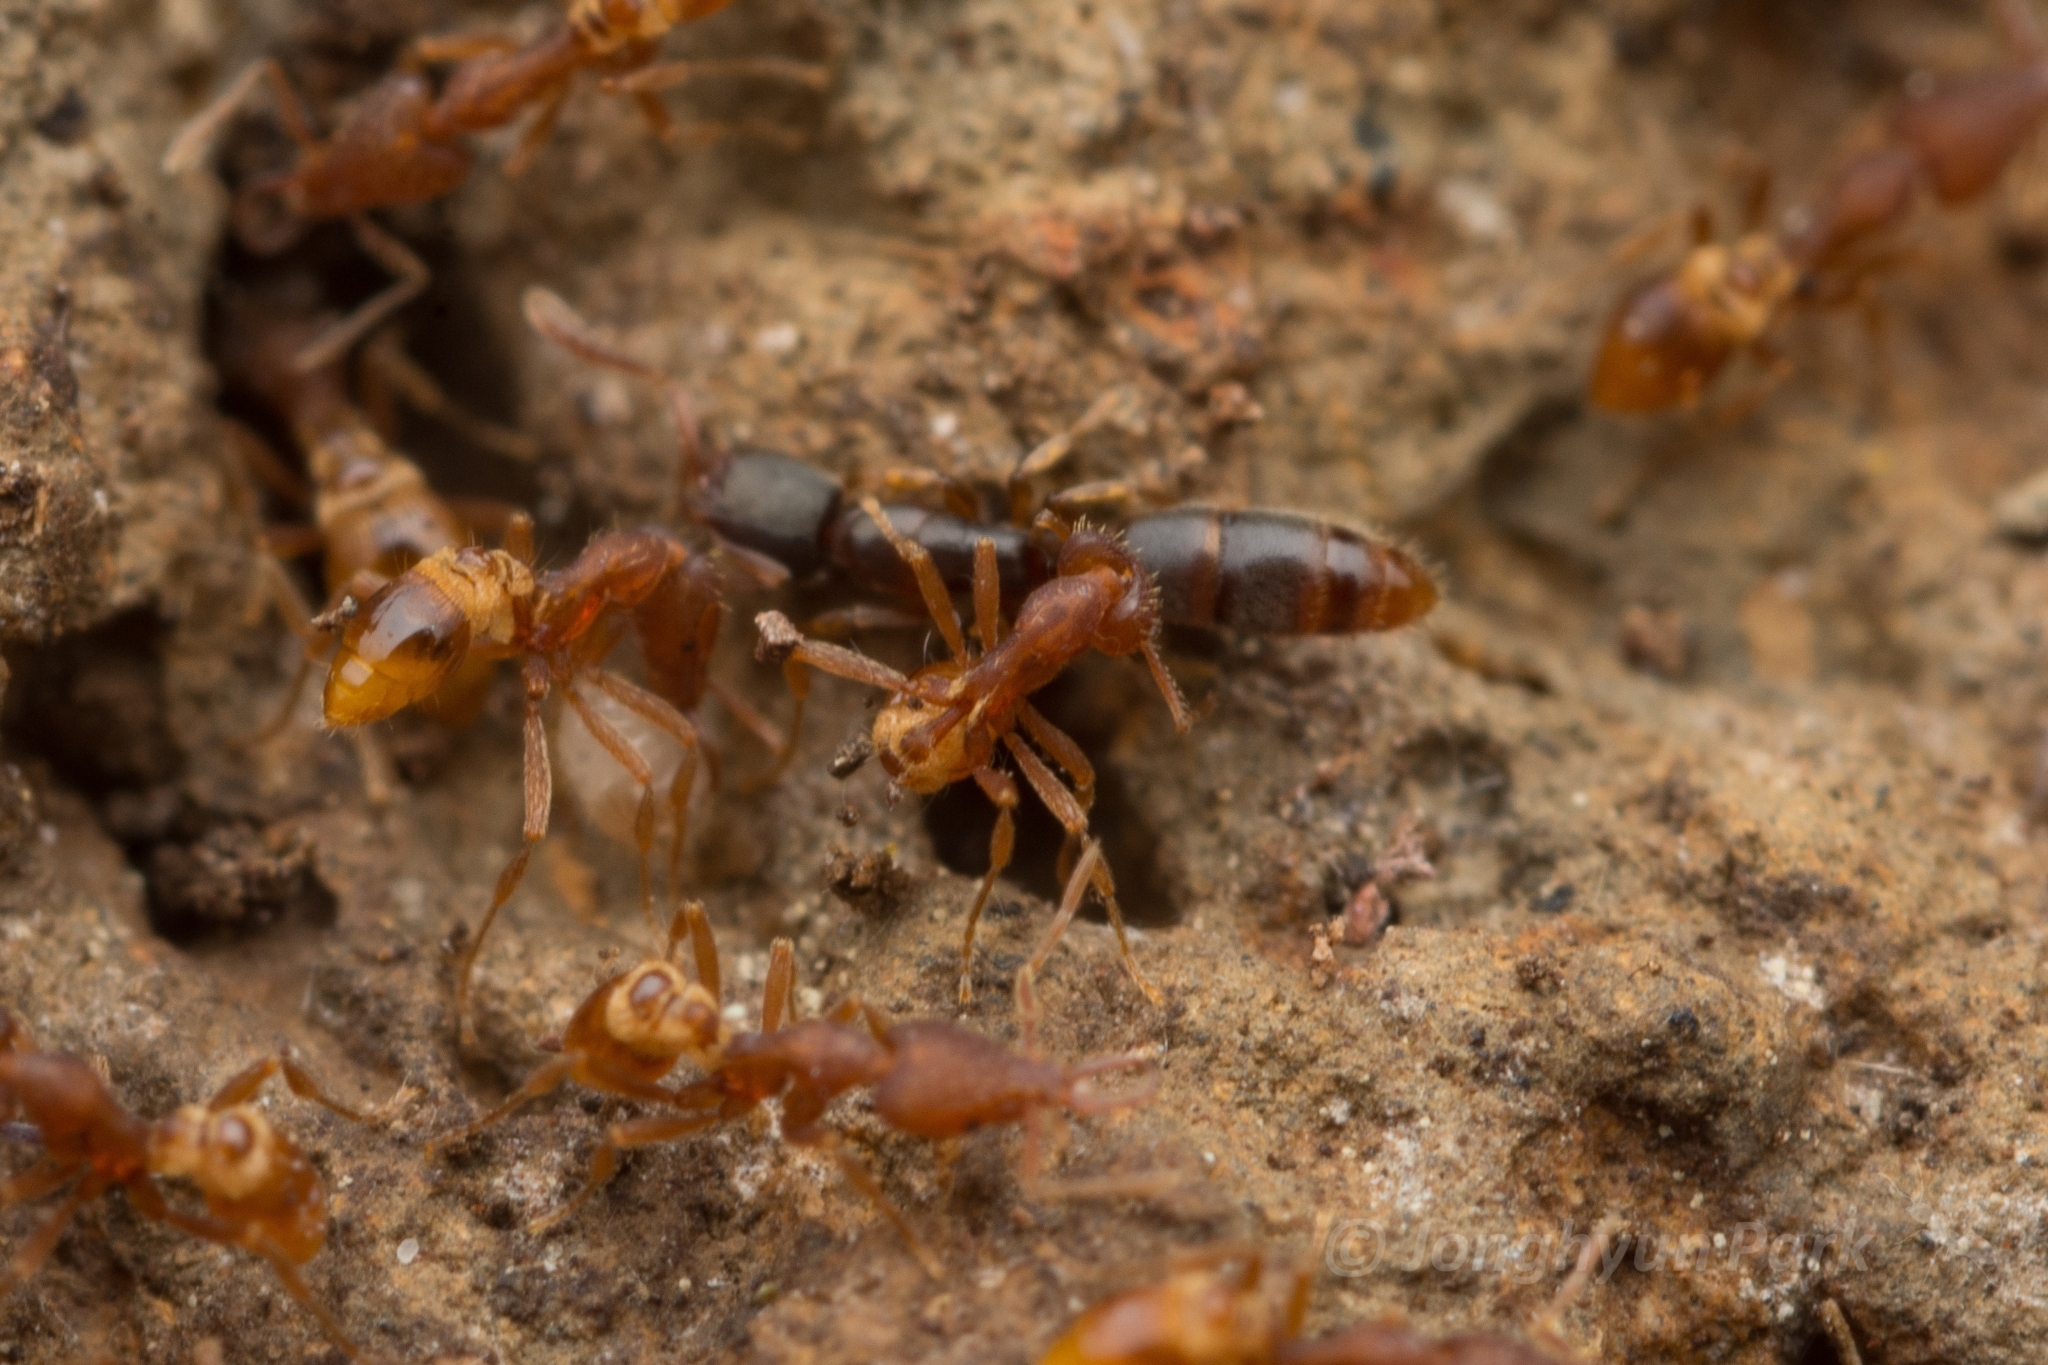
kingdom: Animalia
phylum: Arthropoda
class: Insecta
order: Hymenoptera
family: Formicidae
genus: Strumigenys
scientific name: Strumigenys lewisi
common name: Ant
